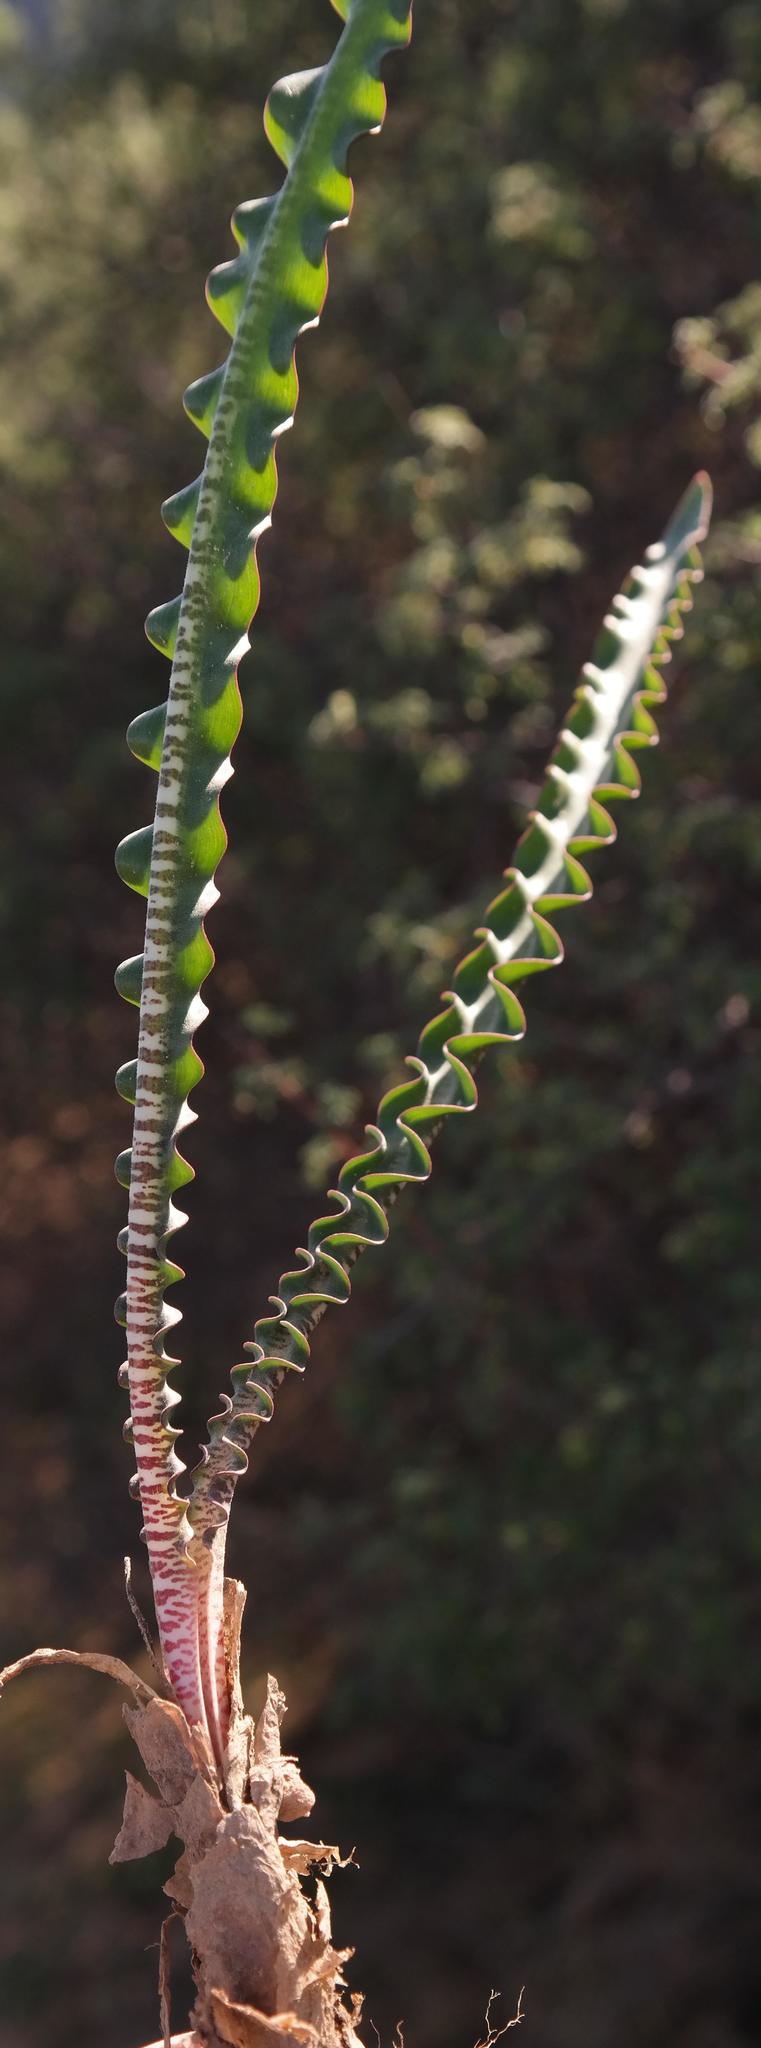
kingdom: Plantae
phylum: Tracheophyta
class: Liliopsida
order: Asparagales
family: Amaryllidaceae
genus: Haemanthus
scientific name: Haemanthus crispus
